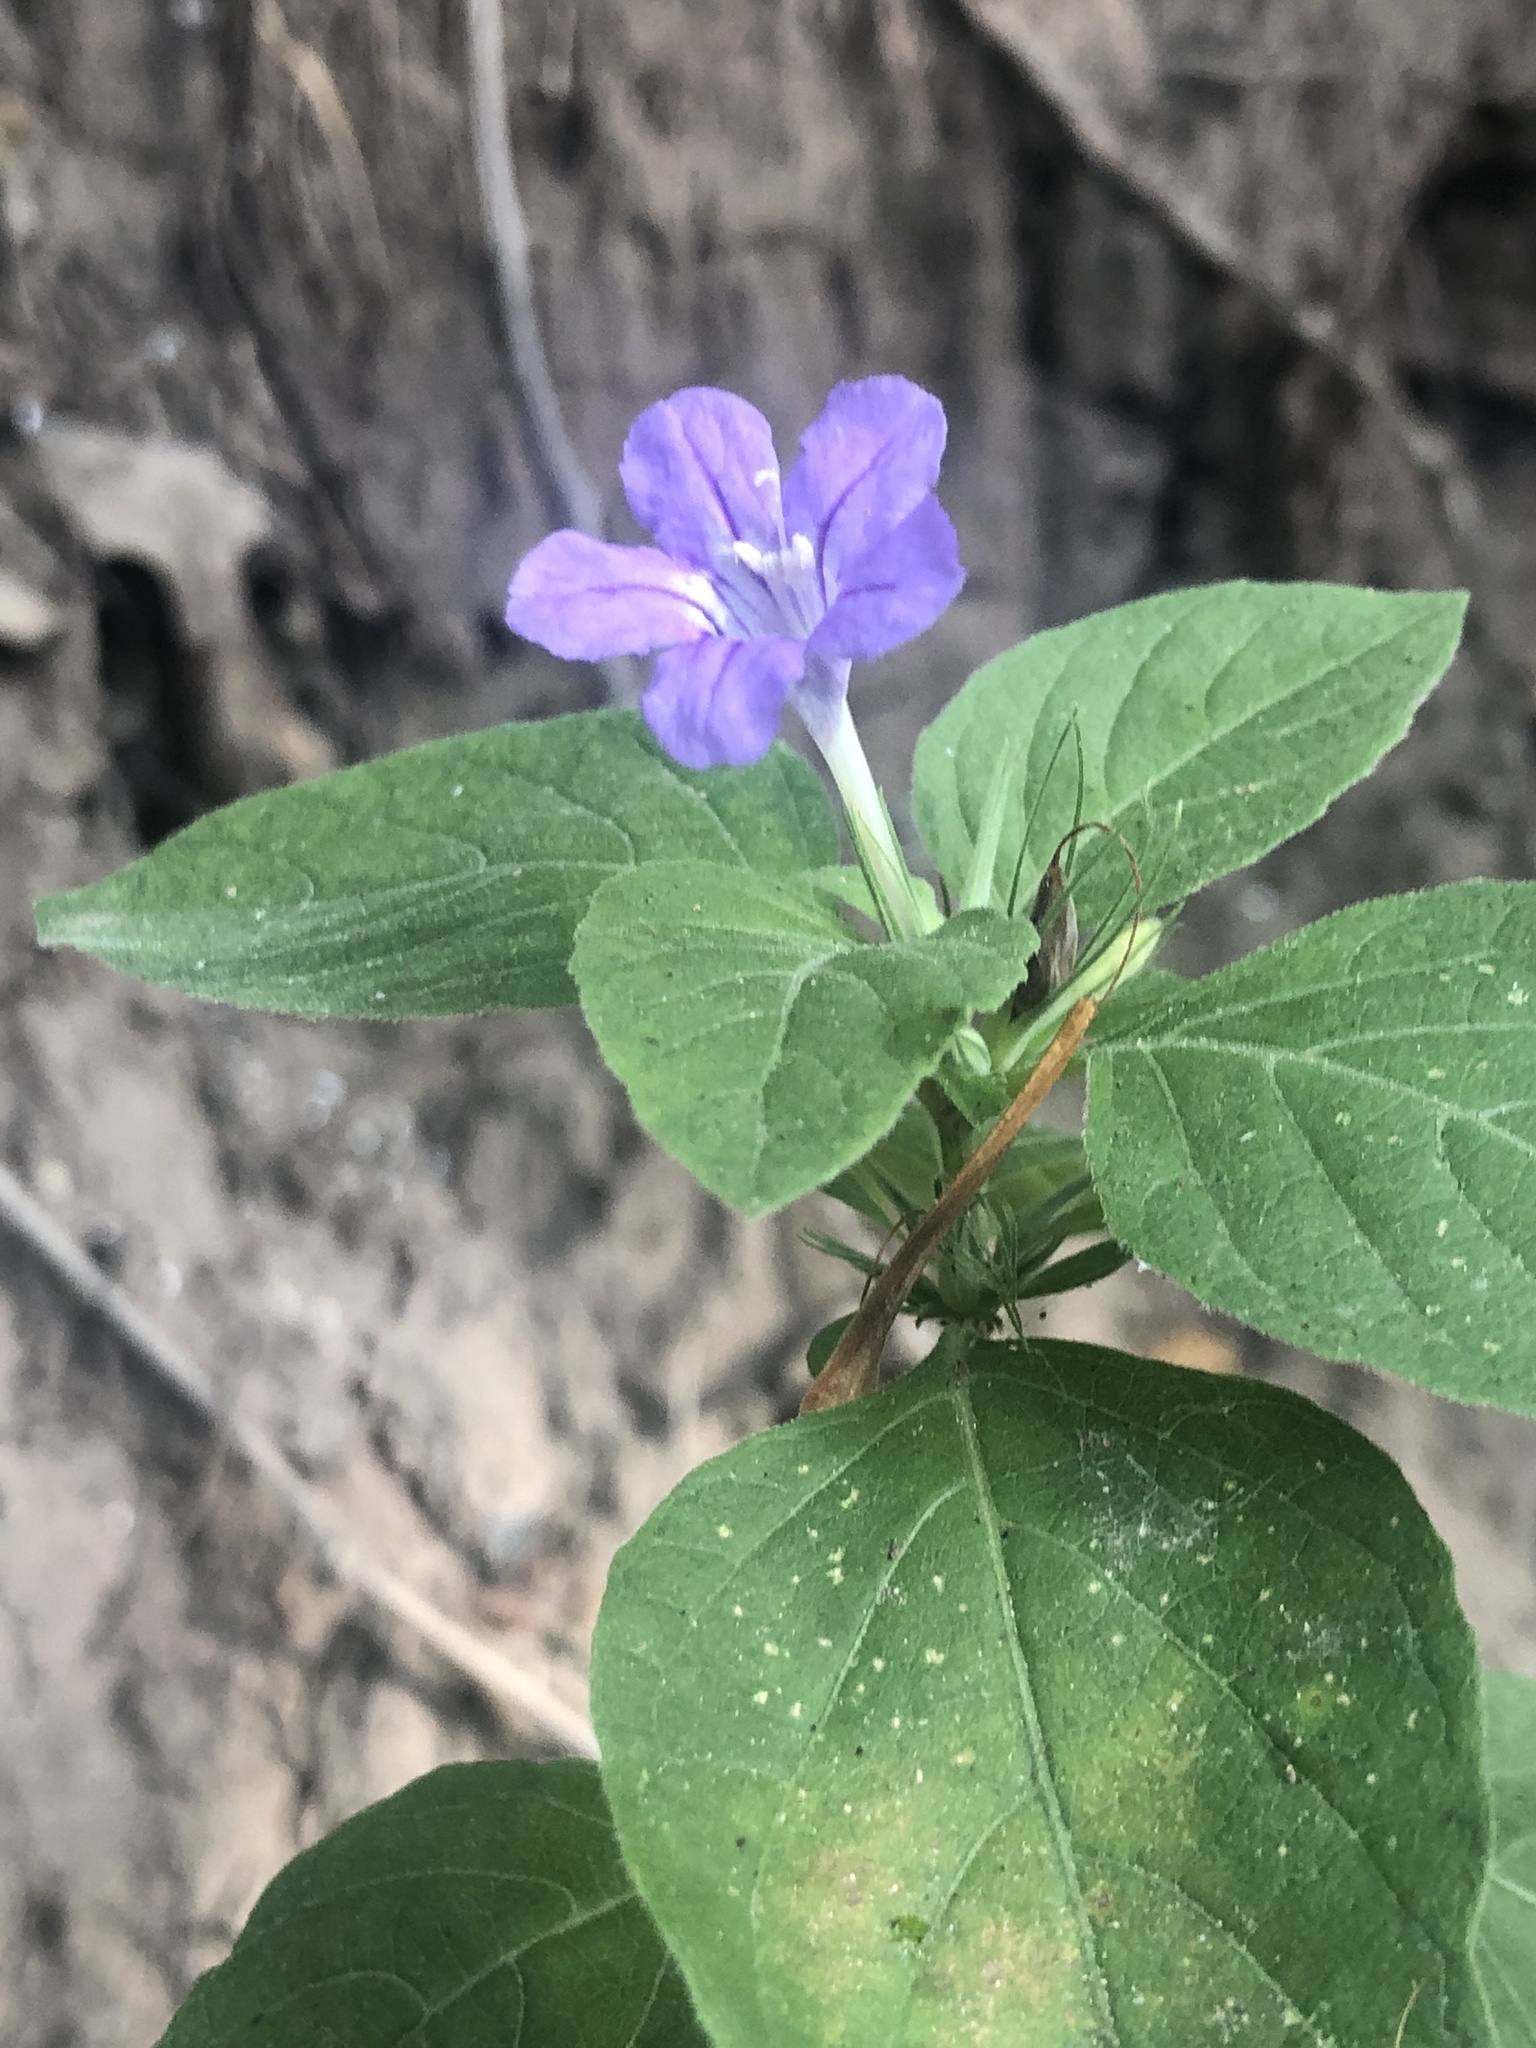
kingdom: Plantae
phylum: Tracheophyta
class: Magnoliopsida
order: Lamiales
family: Acanthaceae
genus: Ruellia
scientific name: Ruellia drummondiana
